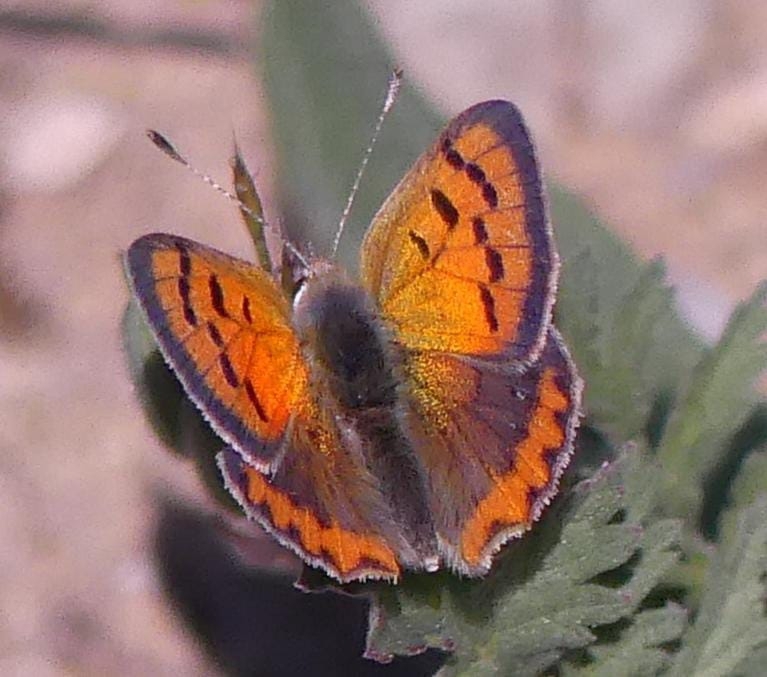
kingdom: Animalia
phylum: Arthropoda
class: Insecta
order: Lepidoptera
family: Lycaenidae
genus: Lycaena
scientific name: Lycaena phlaeas
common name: Small copper
